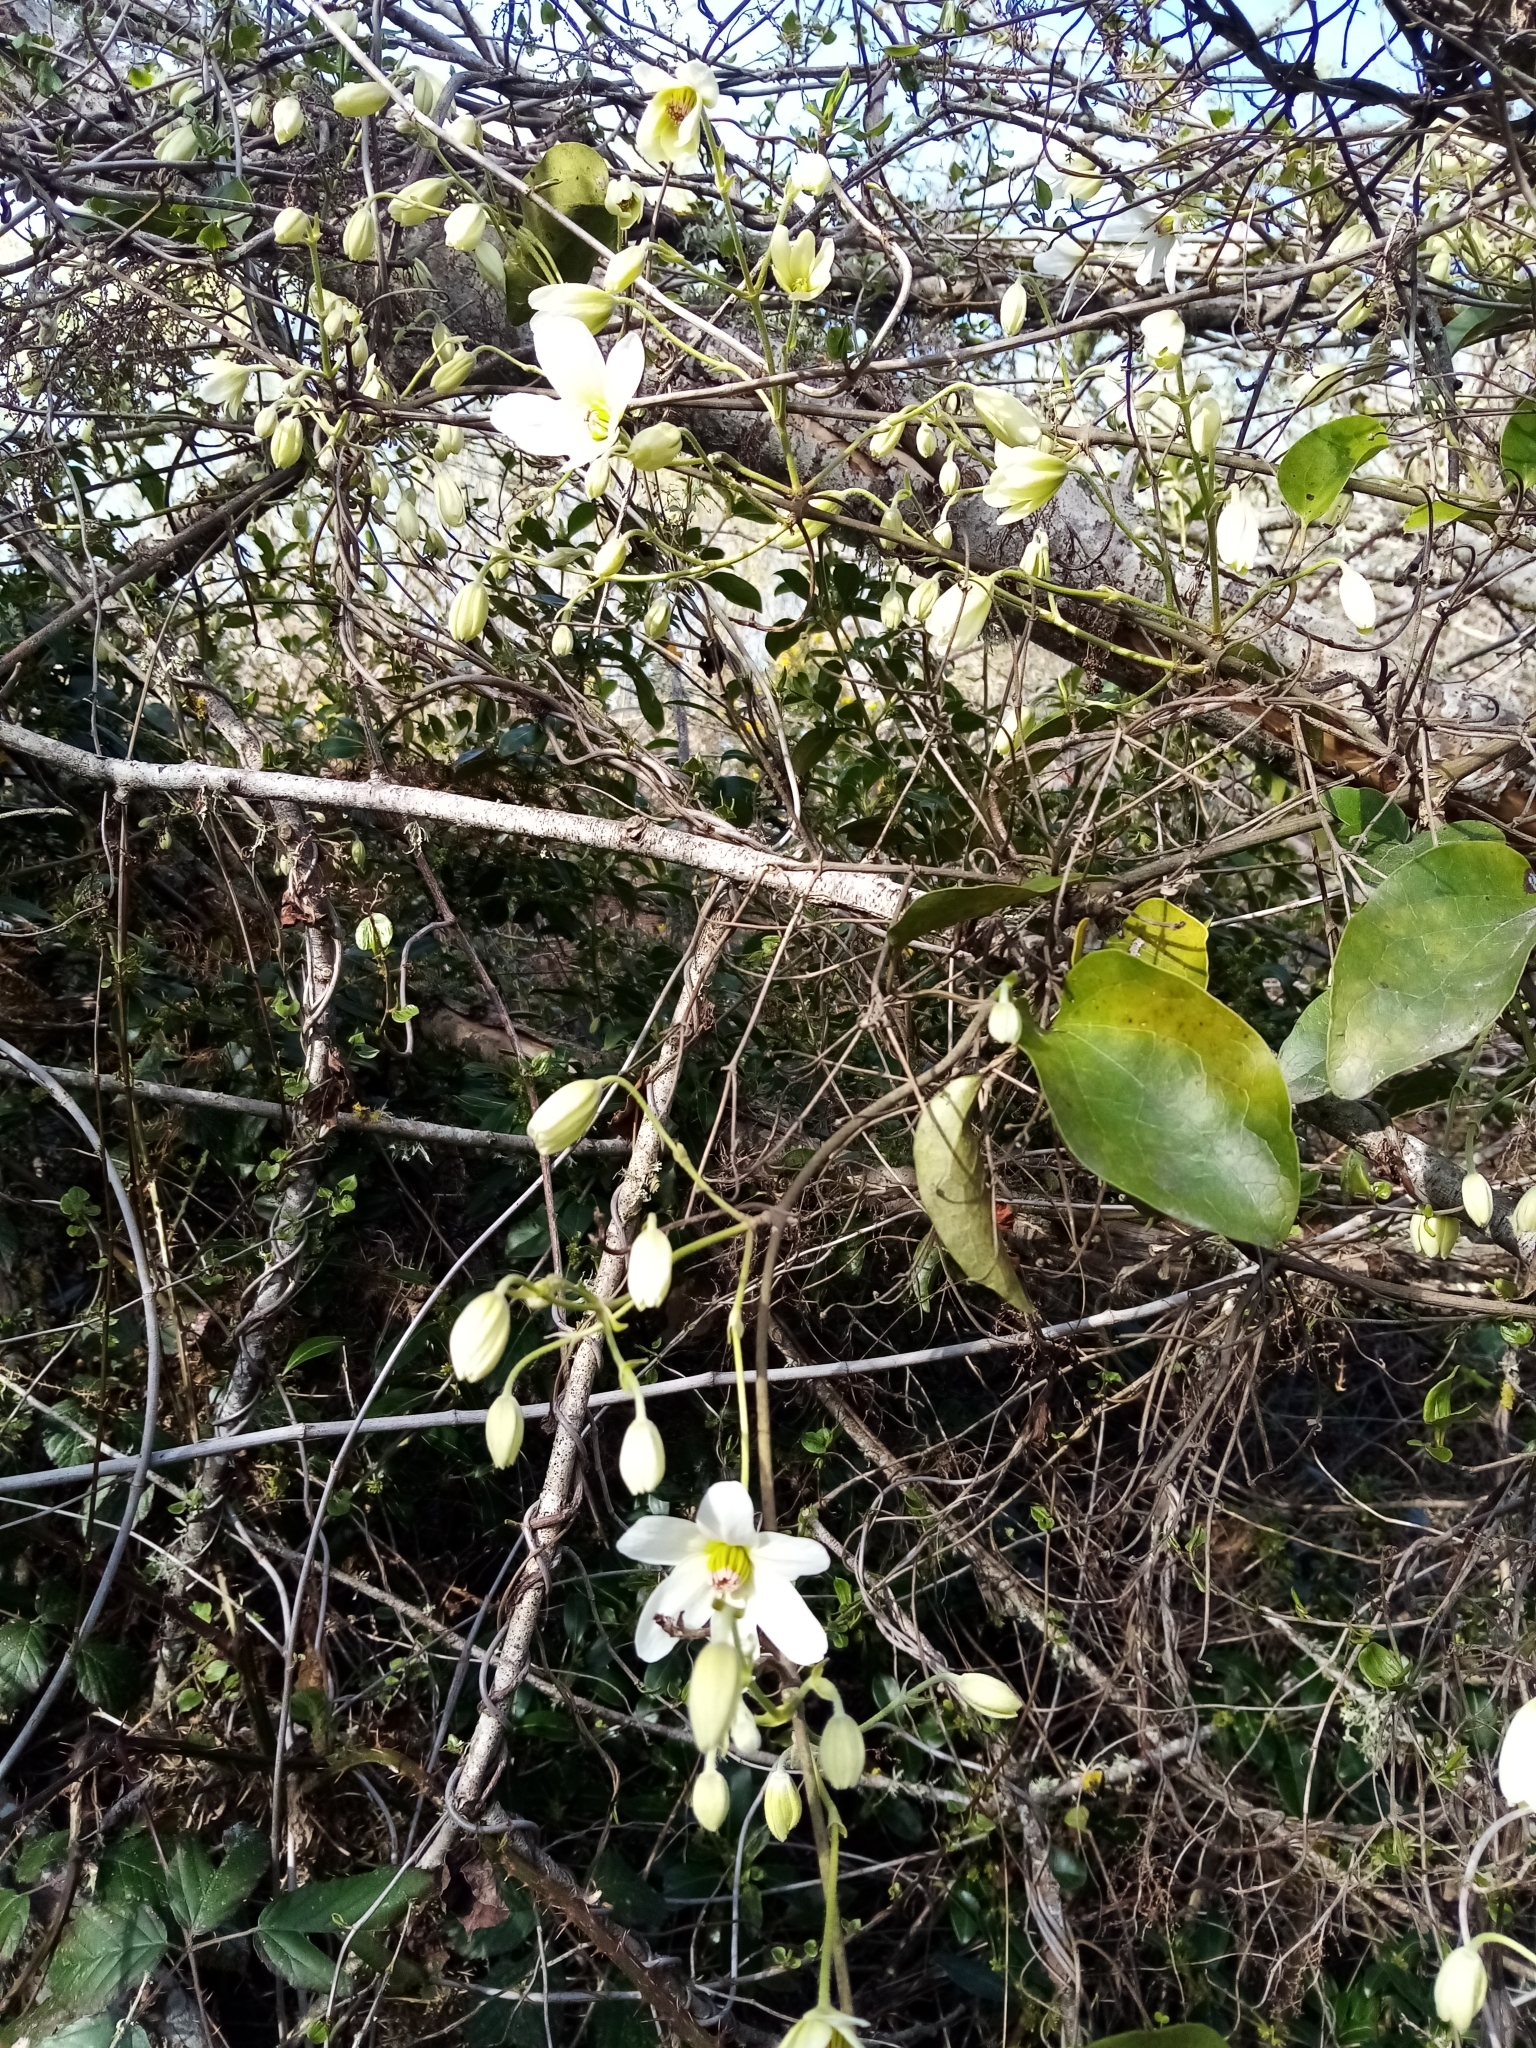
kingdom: Plantae
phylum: Tracheophyta
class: Magnoliopsida
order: Ranunculales
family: Ranunculaceae
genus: Clematis
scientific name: Clematis paniculata
